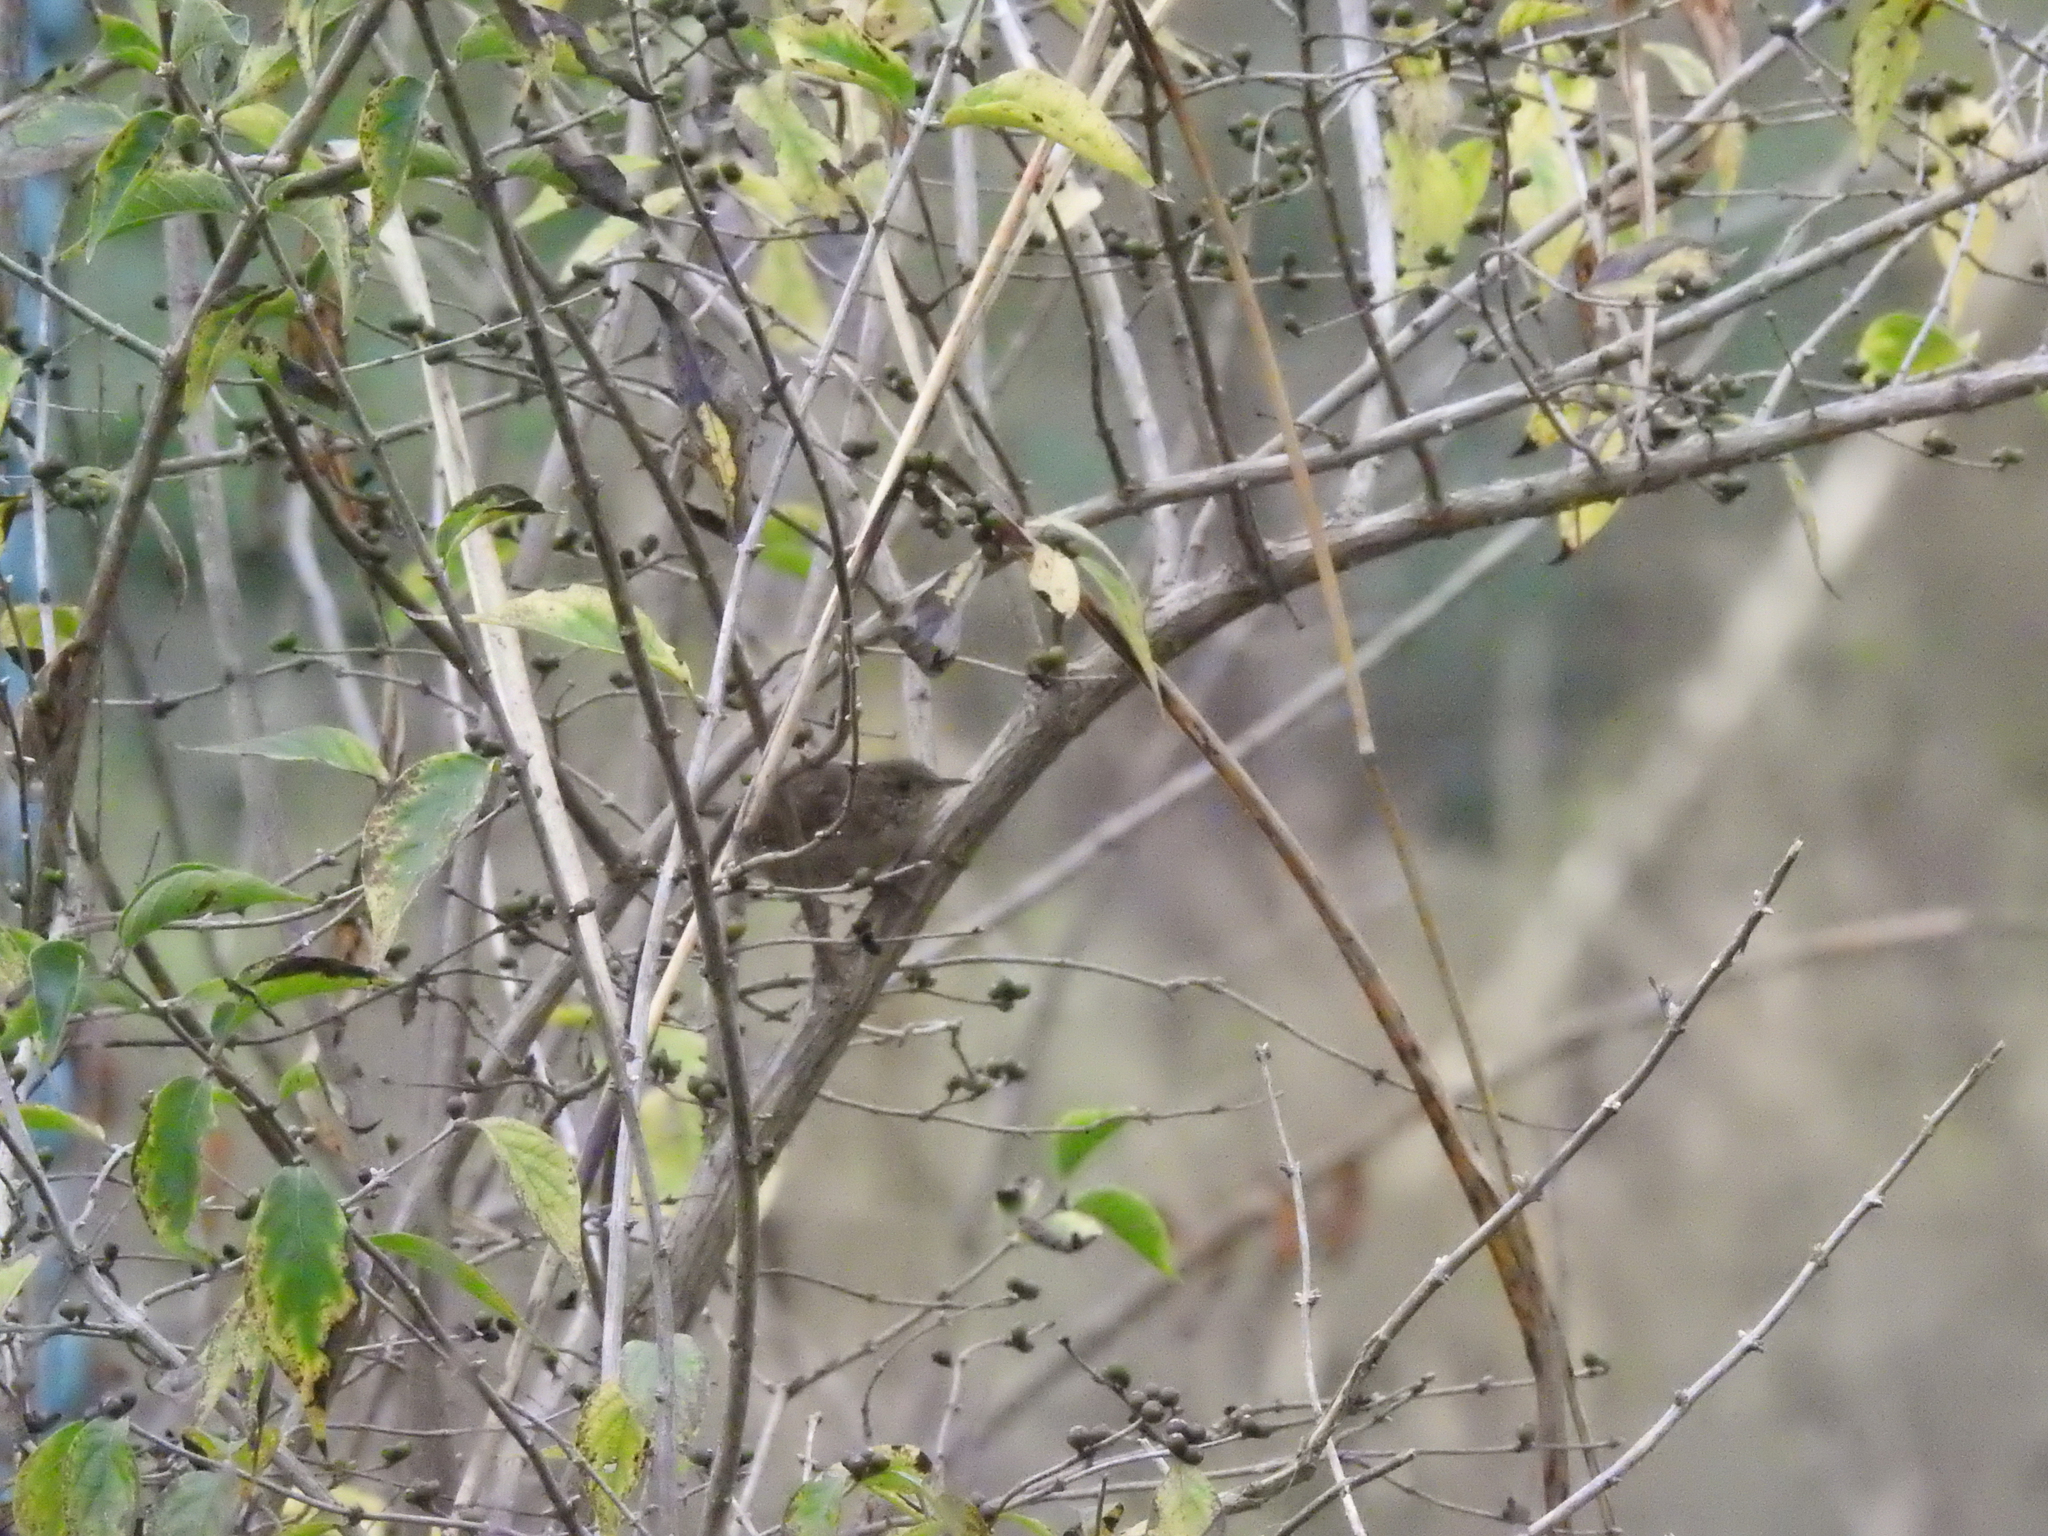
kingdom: Animalia
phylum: Chordata
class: Aves
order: Passeriformes
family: Troglodytidae
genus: Troglodytes
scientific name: Troglodytes aedon
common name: House wren
